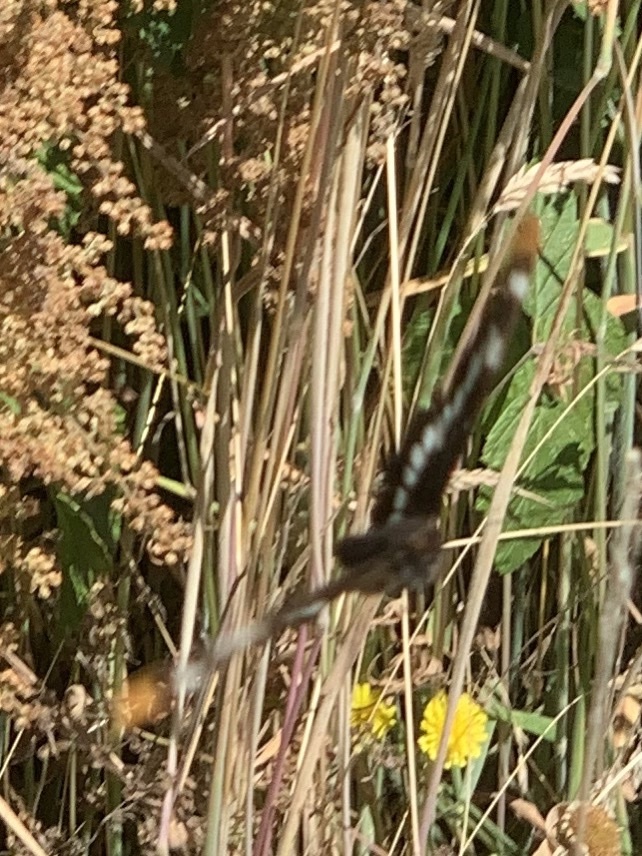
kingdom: Animalia
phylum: Arthropoda
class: Insecta
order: Lepidoptera
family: Nymphalidae
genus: Limenitis
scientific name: Limenitis lorquini
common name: Lorquin's admiral
